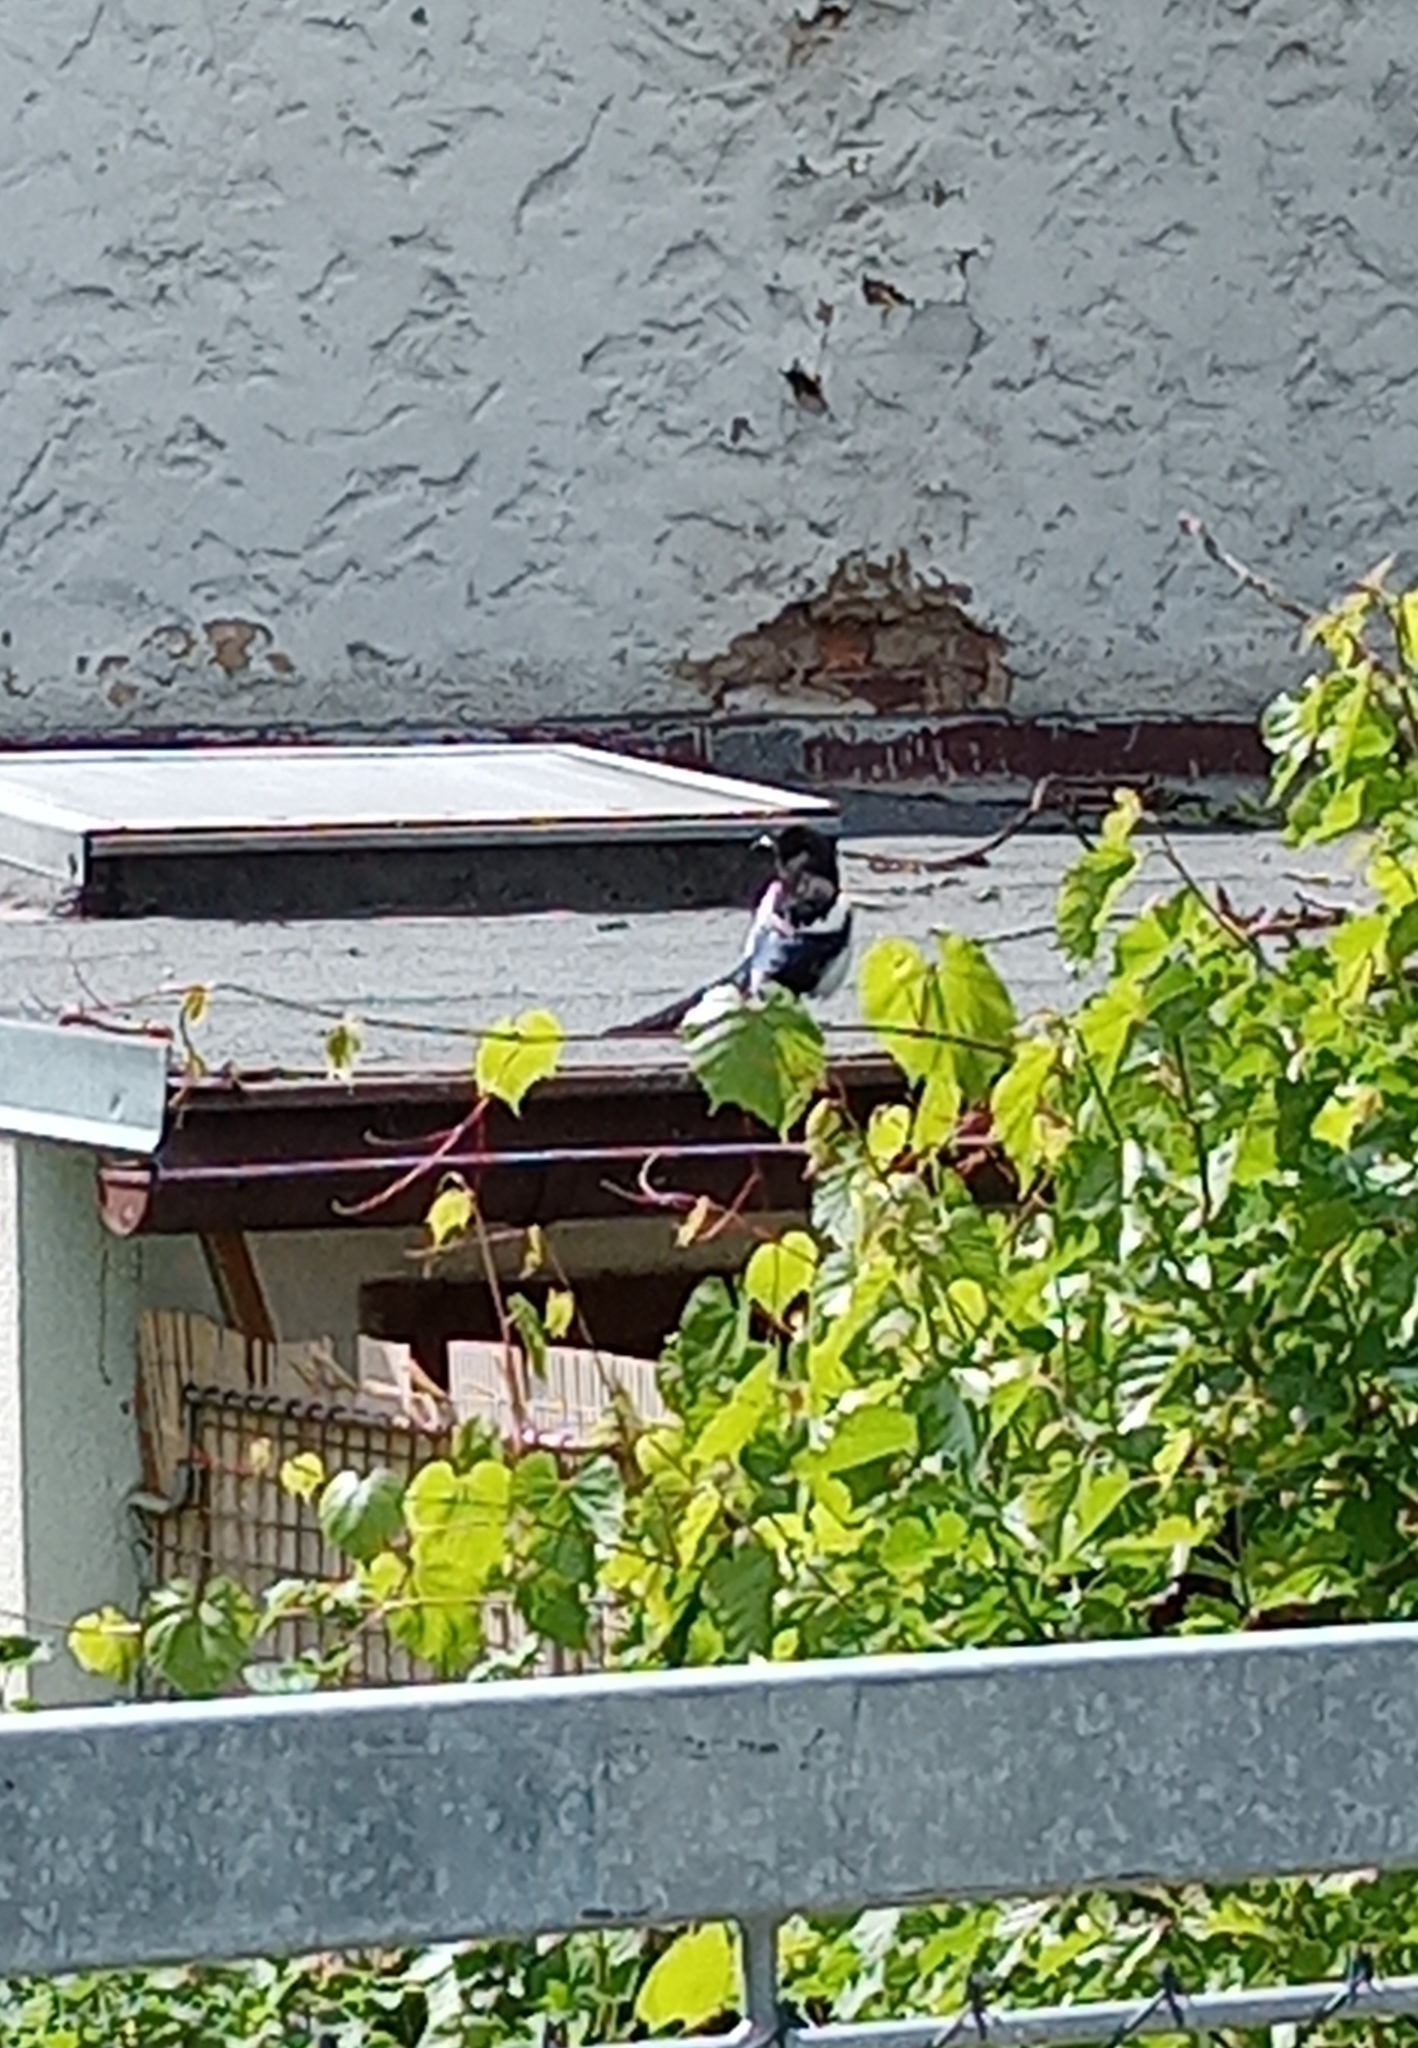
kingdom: Animalia
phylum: Chordata
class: Aves
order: Passeriformes
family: Corvidae
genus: Pica
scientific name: Pica pica
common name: Eurasian magpie
